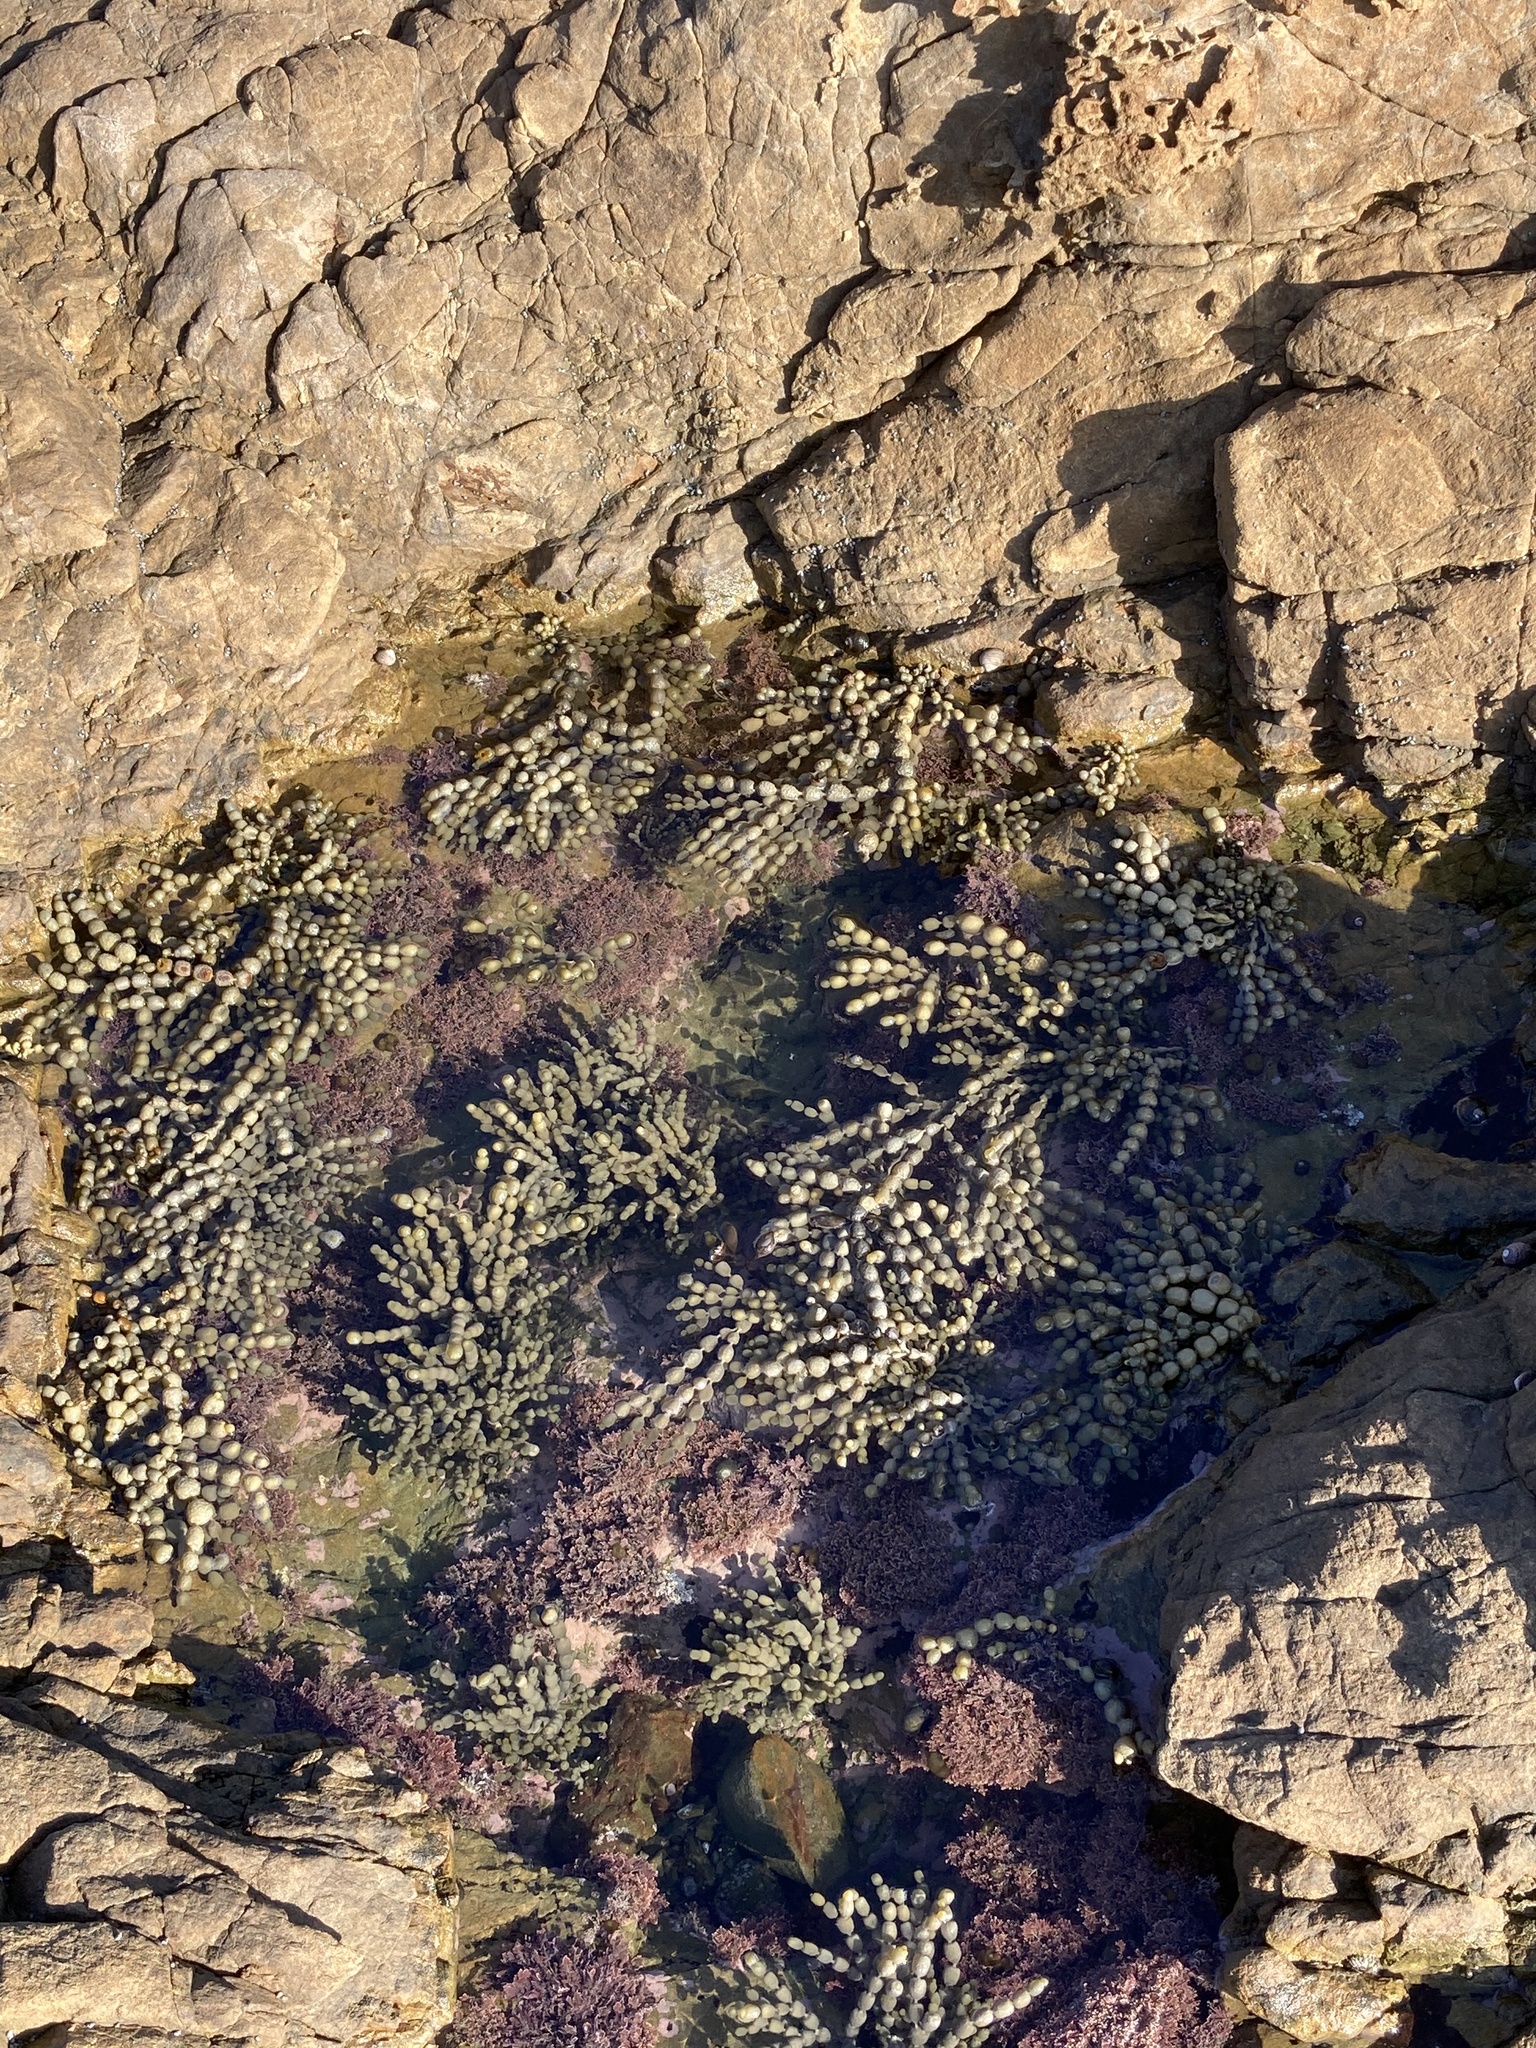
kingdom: Chromista
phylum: Ochrophyta
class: Phaeophyceae
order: Fucales
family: Hormosiraceae
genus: Hormosira
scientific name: Hormosira banksii
